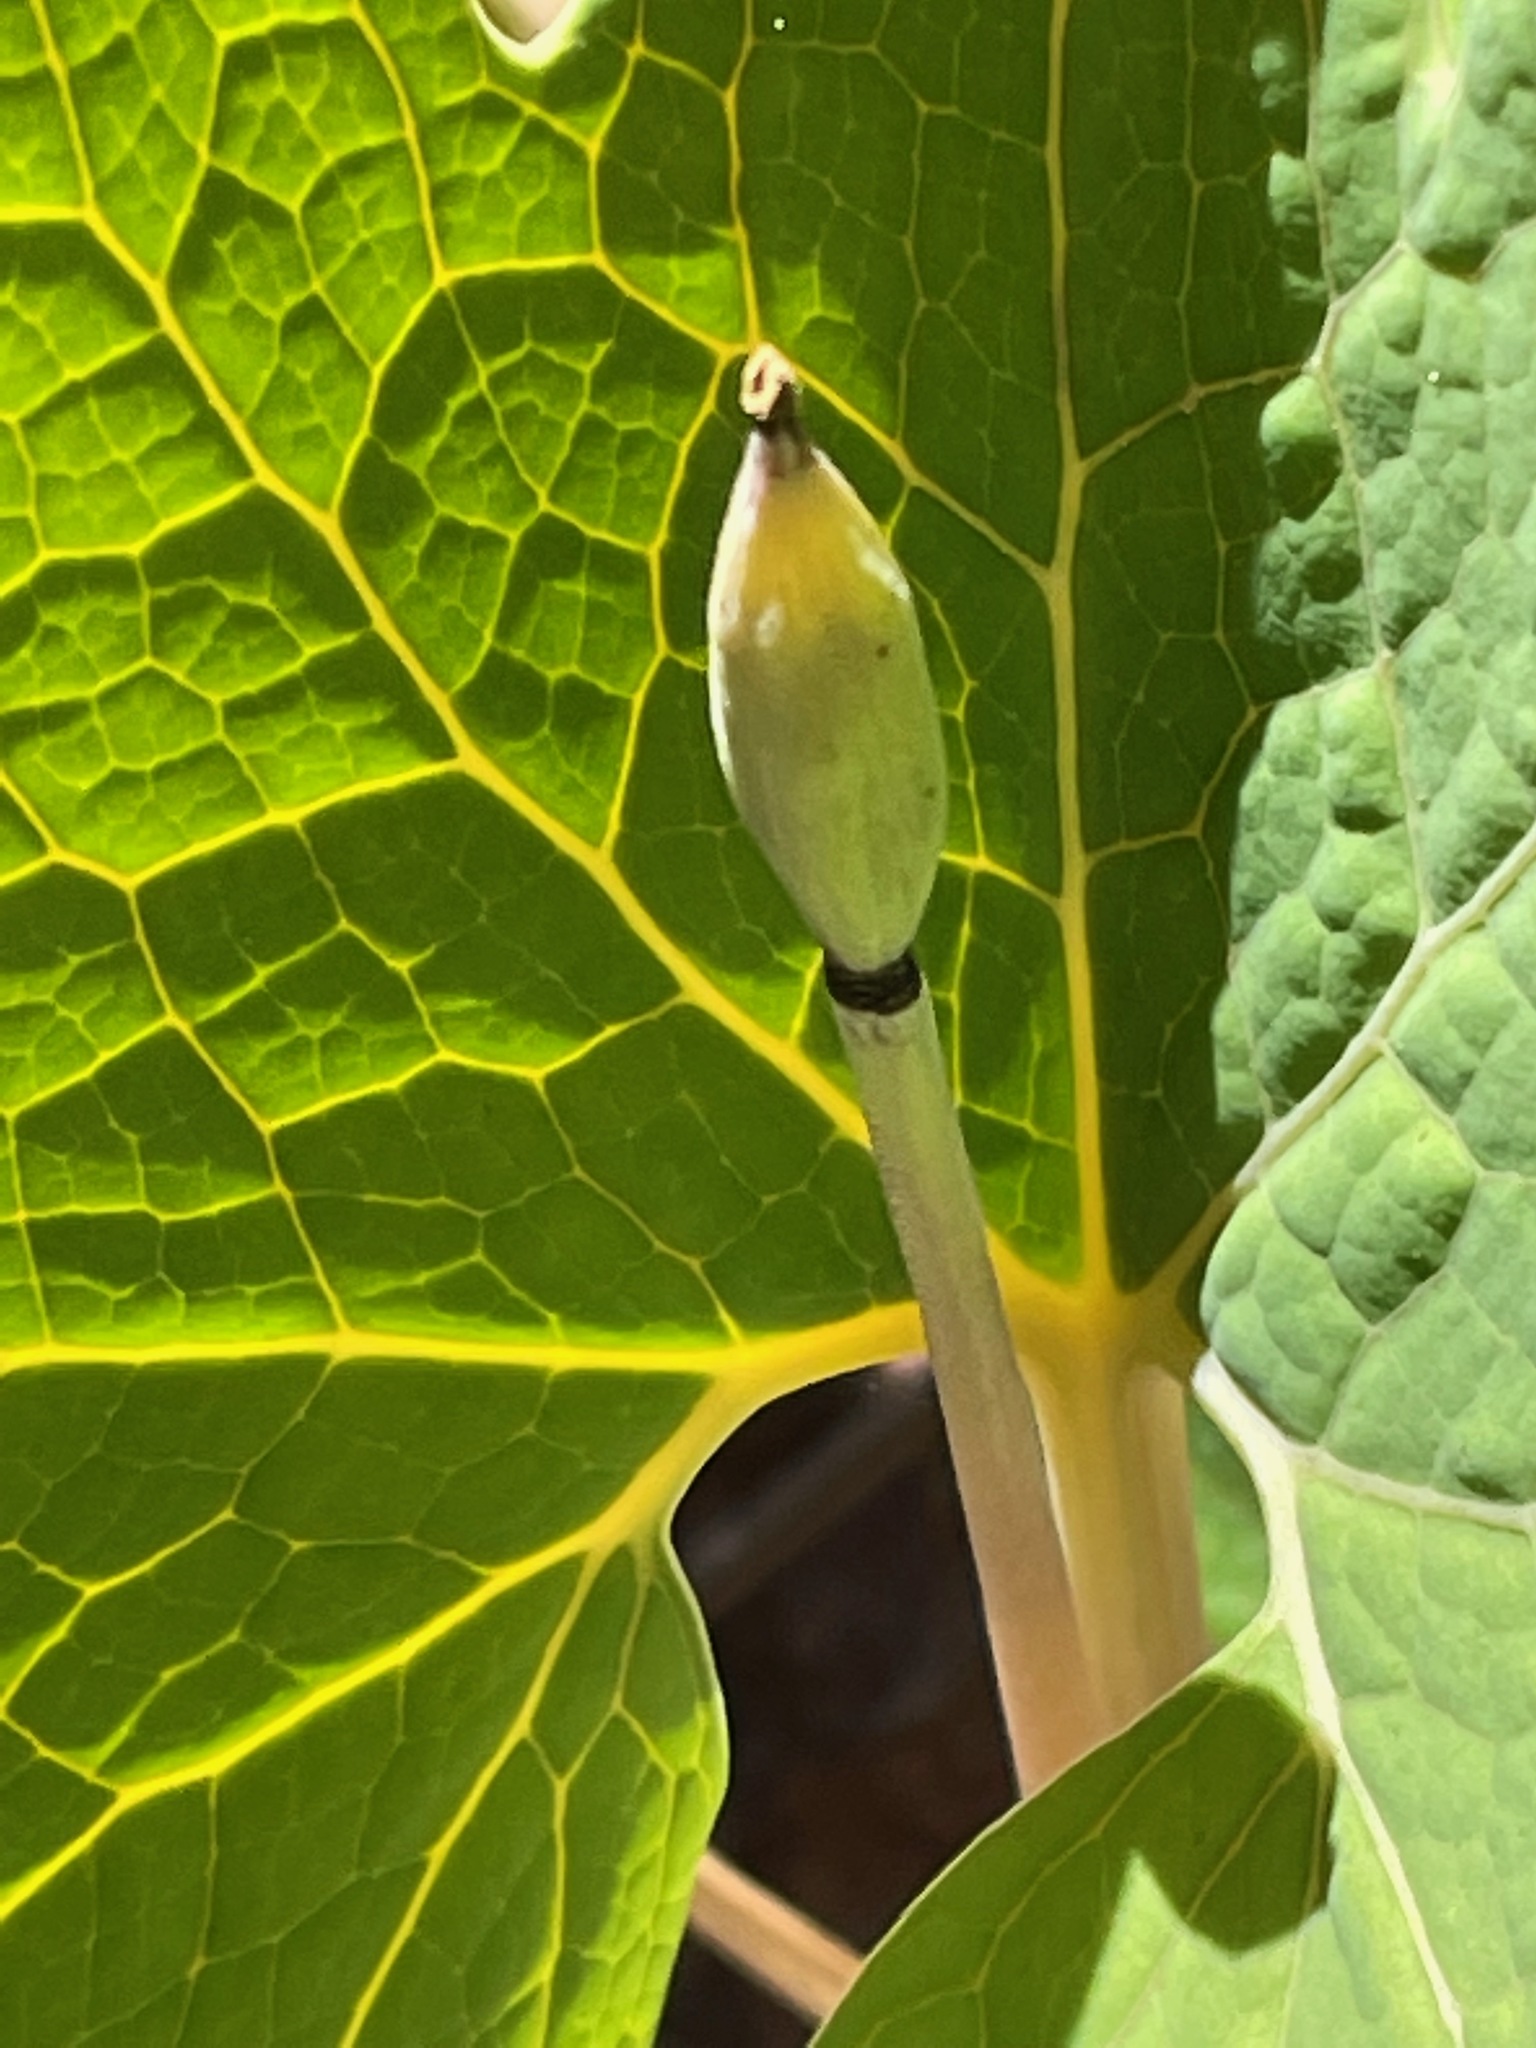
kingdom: Plantae
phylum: Tracheophyta
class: Magnoliopsida
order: Ranunculales
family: Papaveraceae
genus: Sanguinaria
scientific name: Sanguinaria canadensis
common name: Bloodroot
